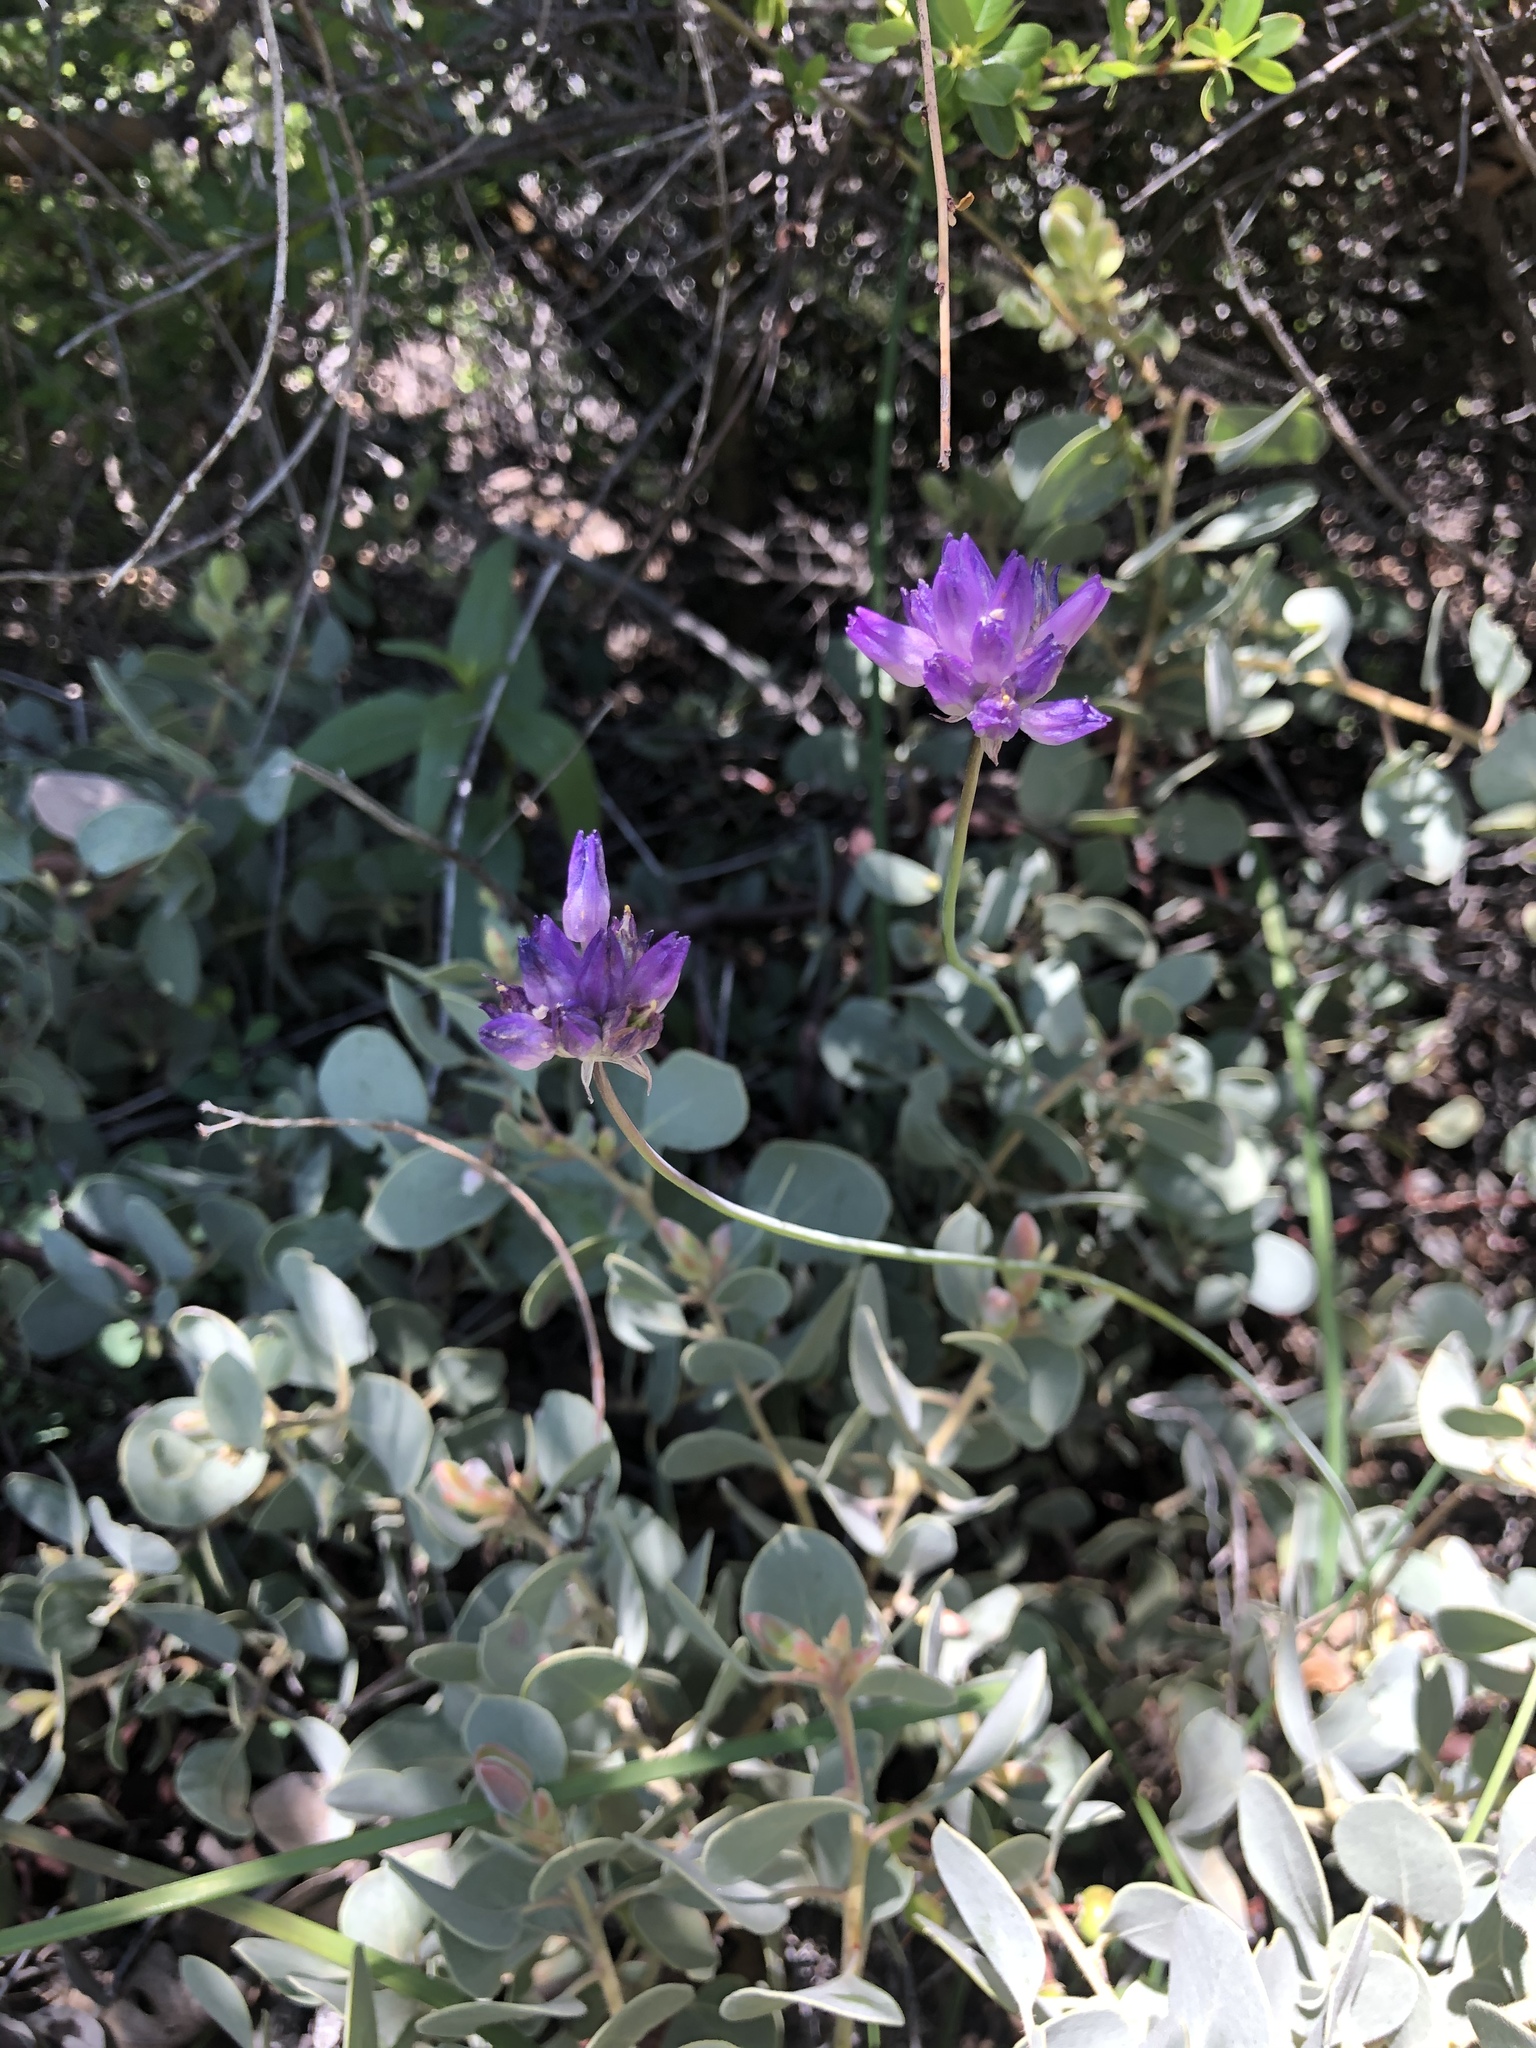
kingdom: Plantae
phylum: Tracheophyta
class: Liliopsida
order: Asparagales
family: Asparagaceae
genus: Dipterostemon
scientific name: Dipterostemon capitatus
